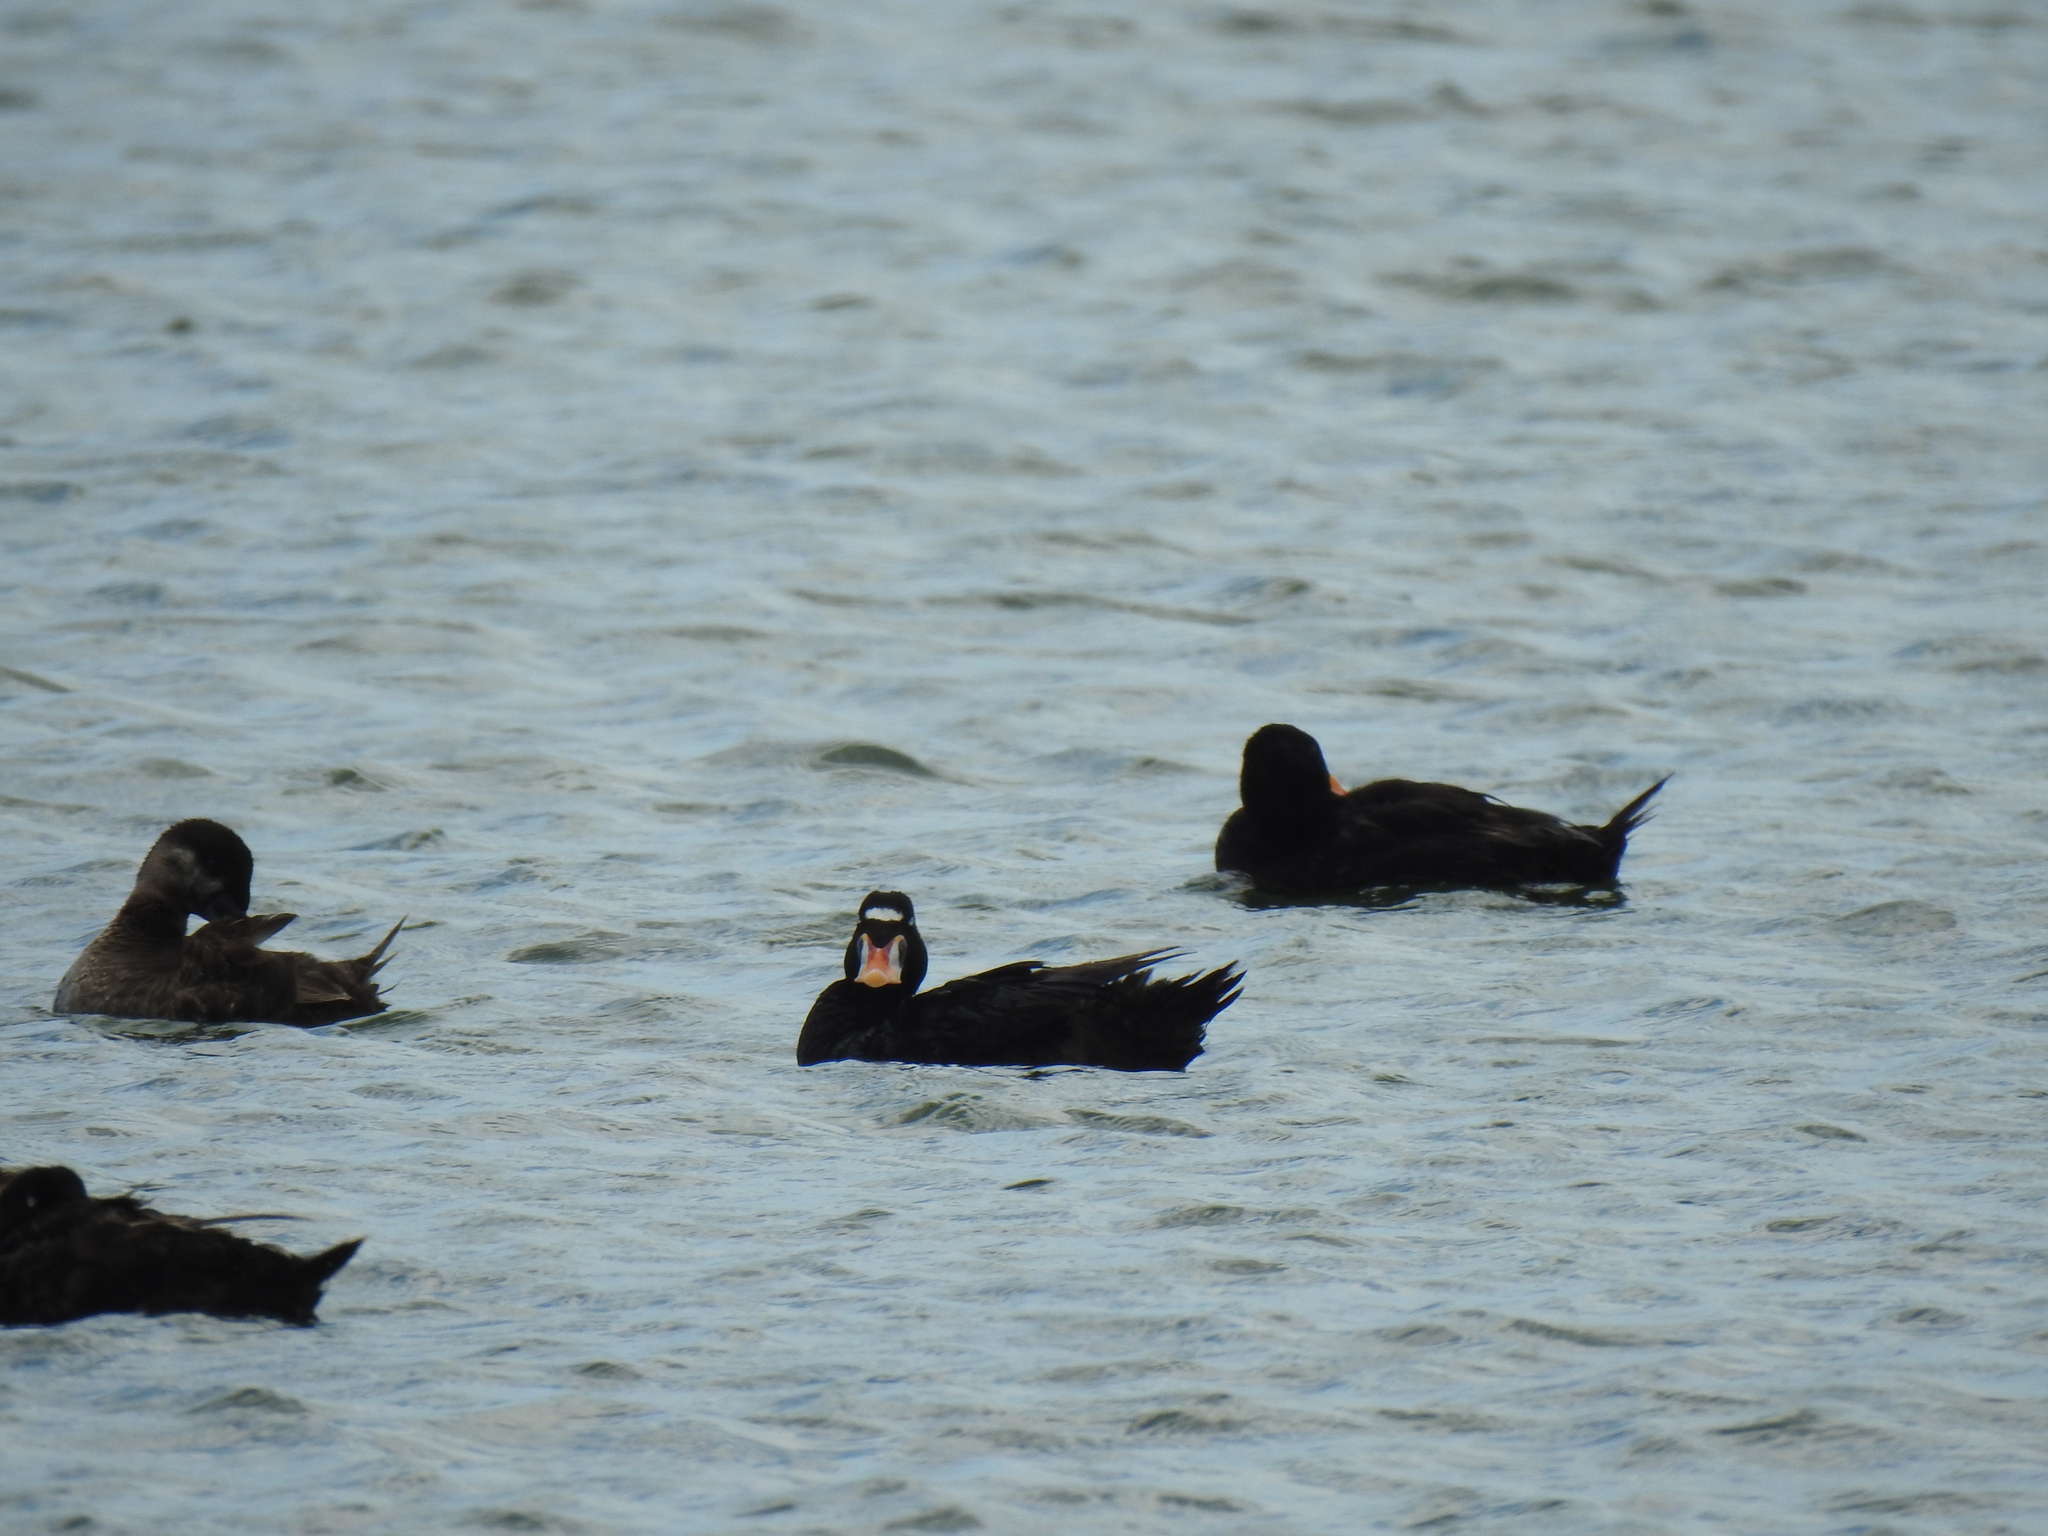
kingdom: Animalia
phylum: Chordata
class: Aves
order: Anseriformes
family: Anatidae
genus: Melanitta
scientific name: Melanitta perspicillata
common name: Surf scoter
